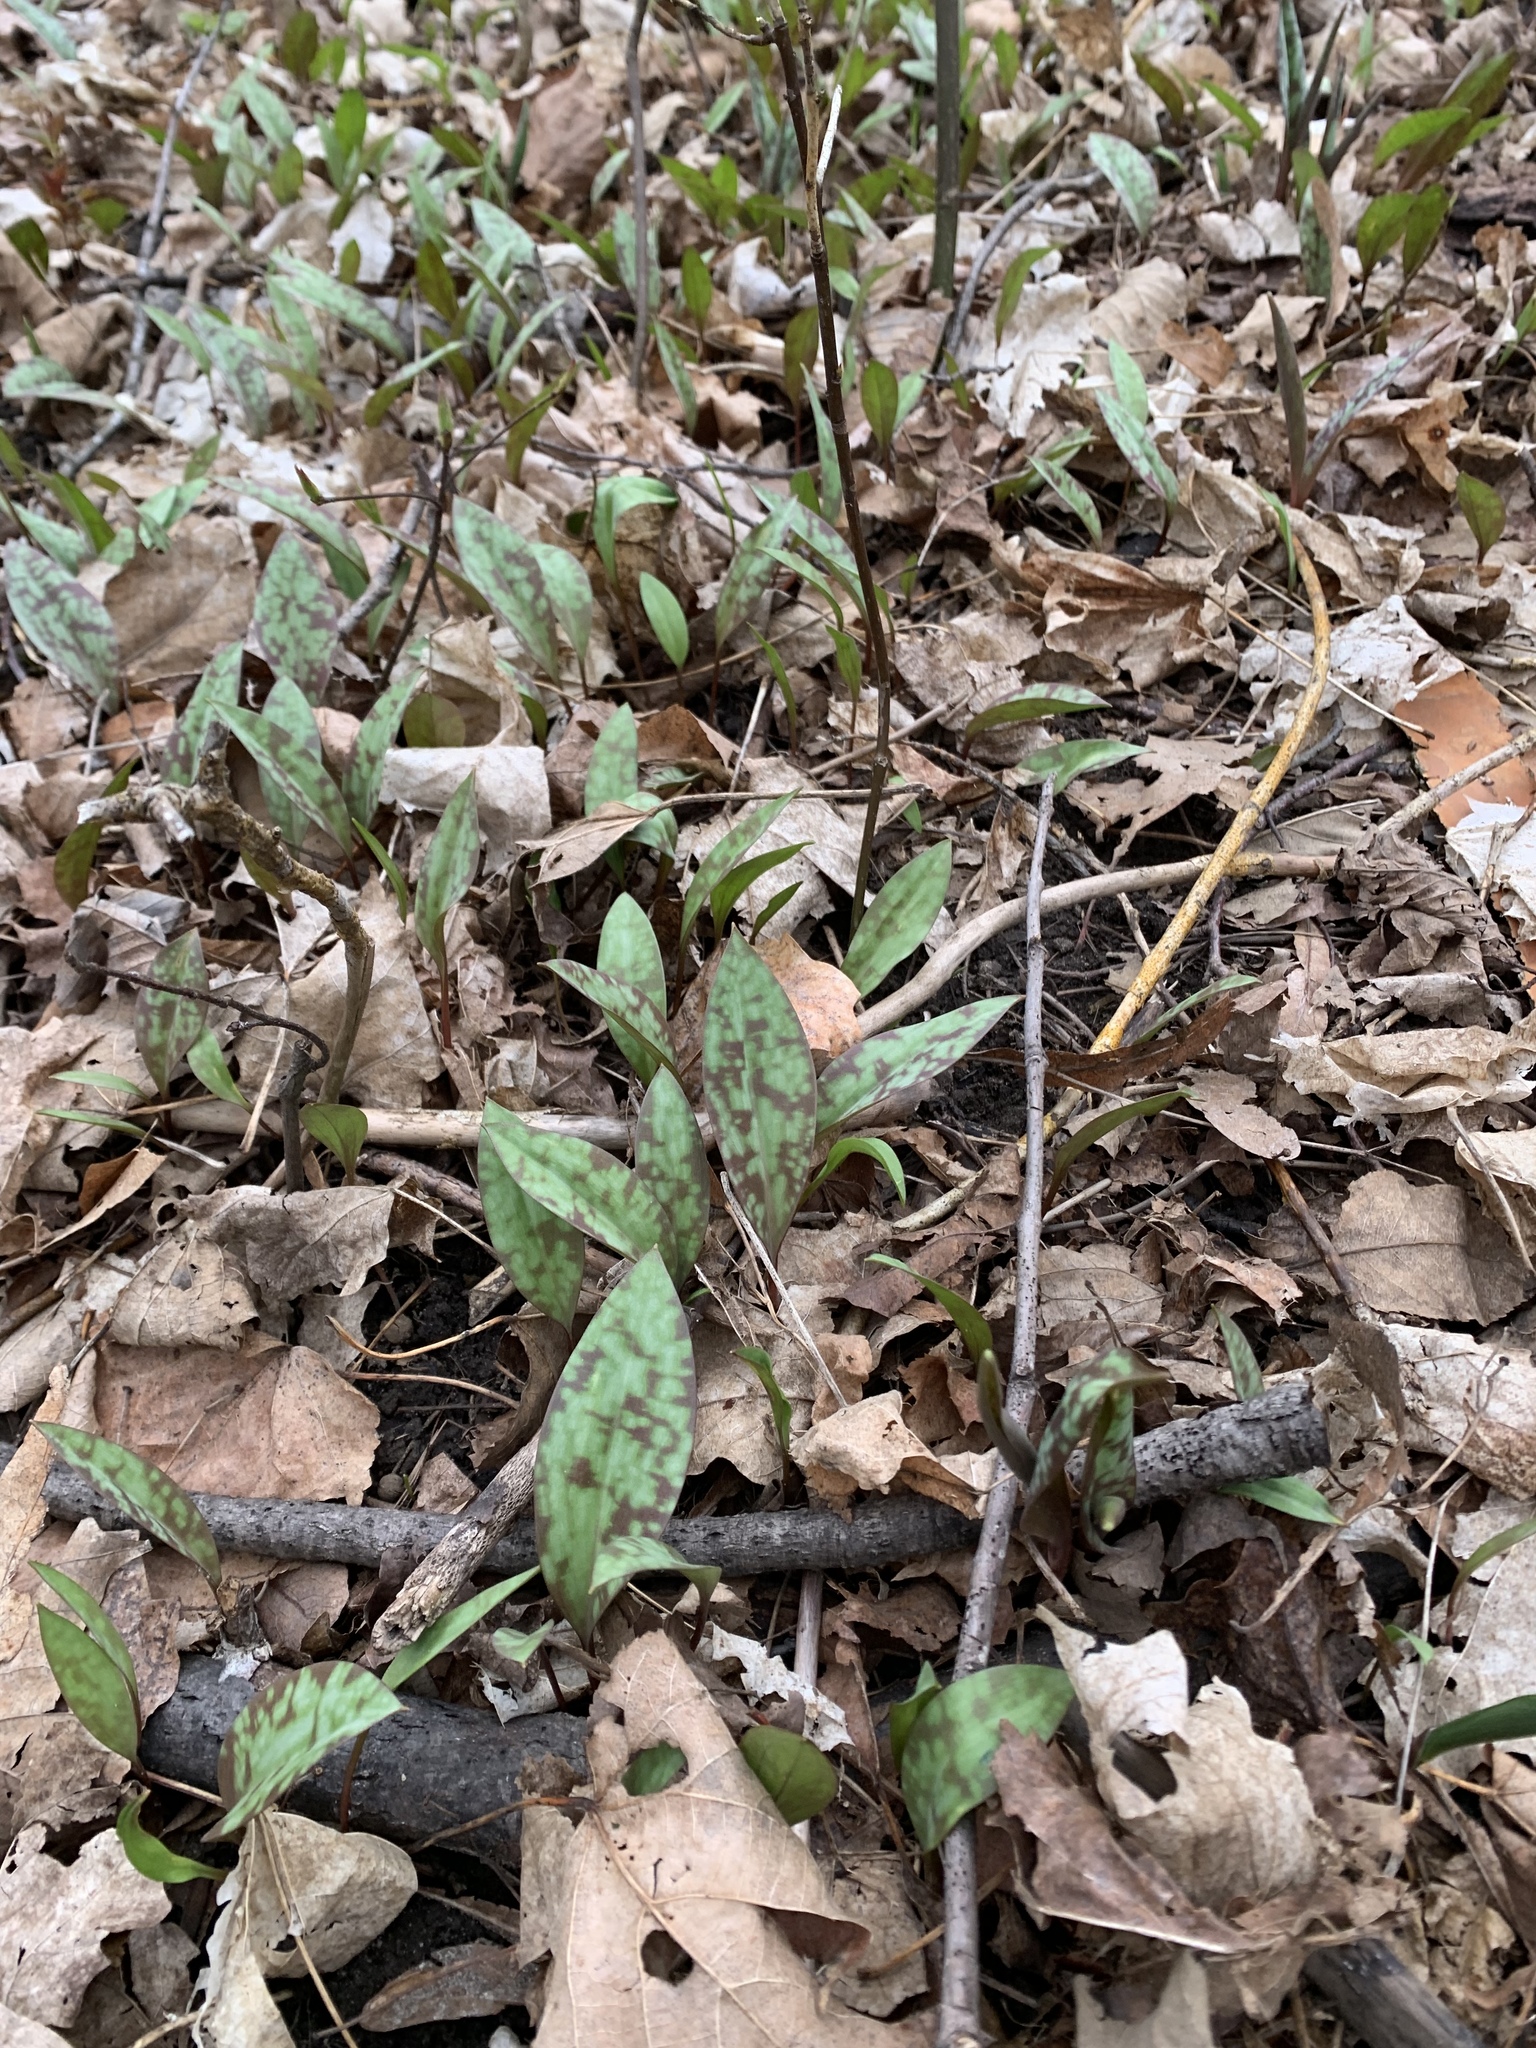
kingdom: Plantae
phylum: Tracheophyta
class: Liliopsida
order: Liliales
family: Liliaceae
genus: Erythronium
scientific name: Erythronium americanum
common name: Yellow adder's-tongue
